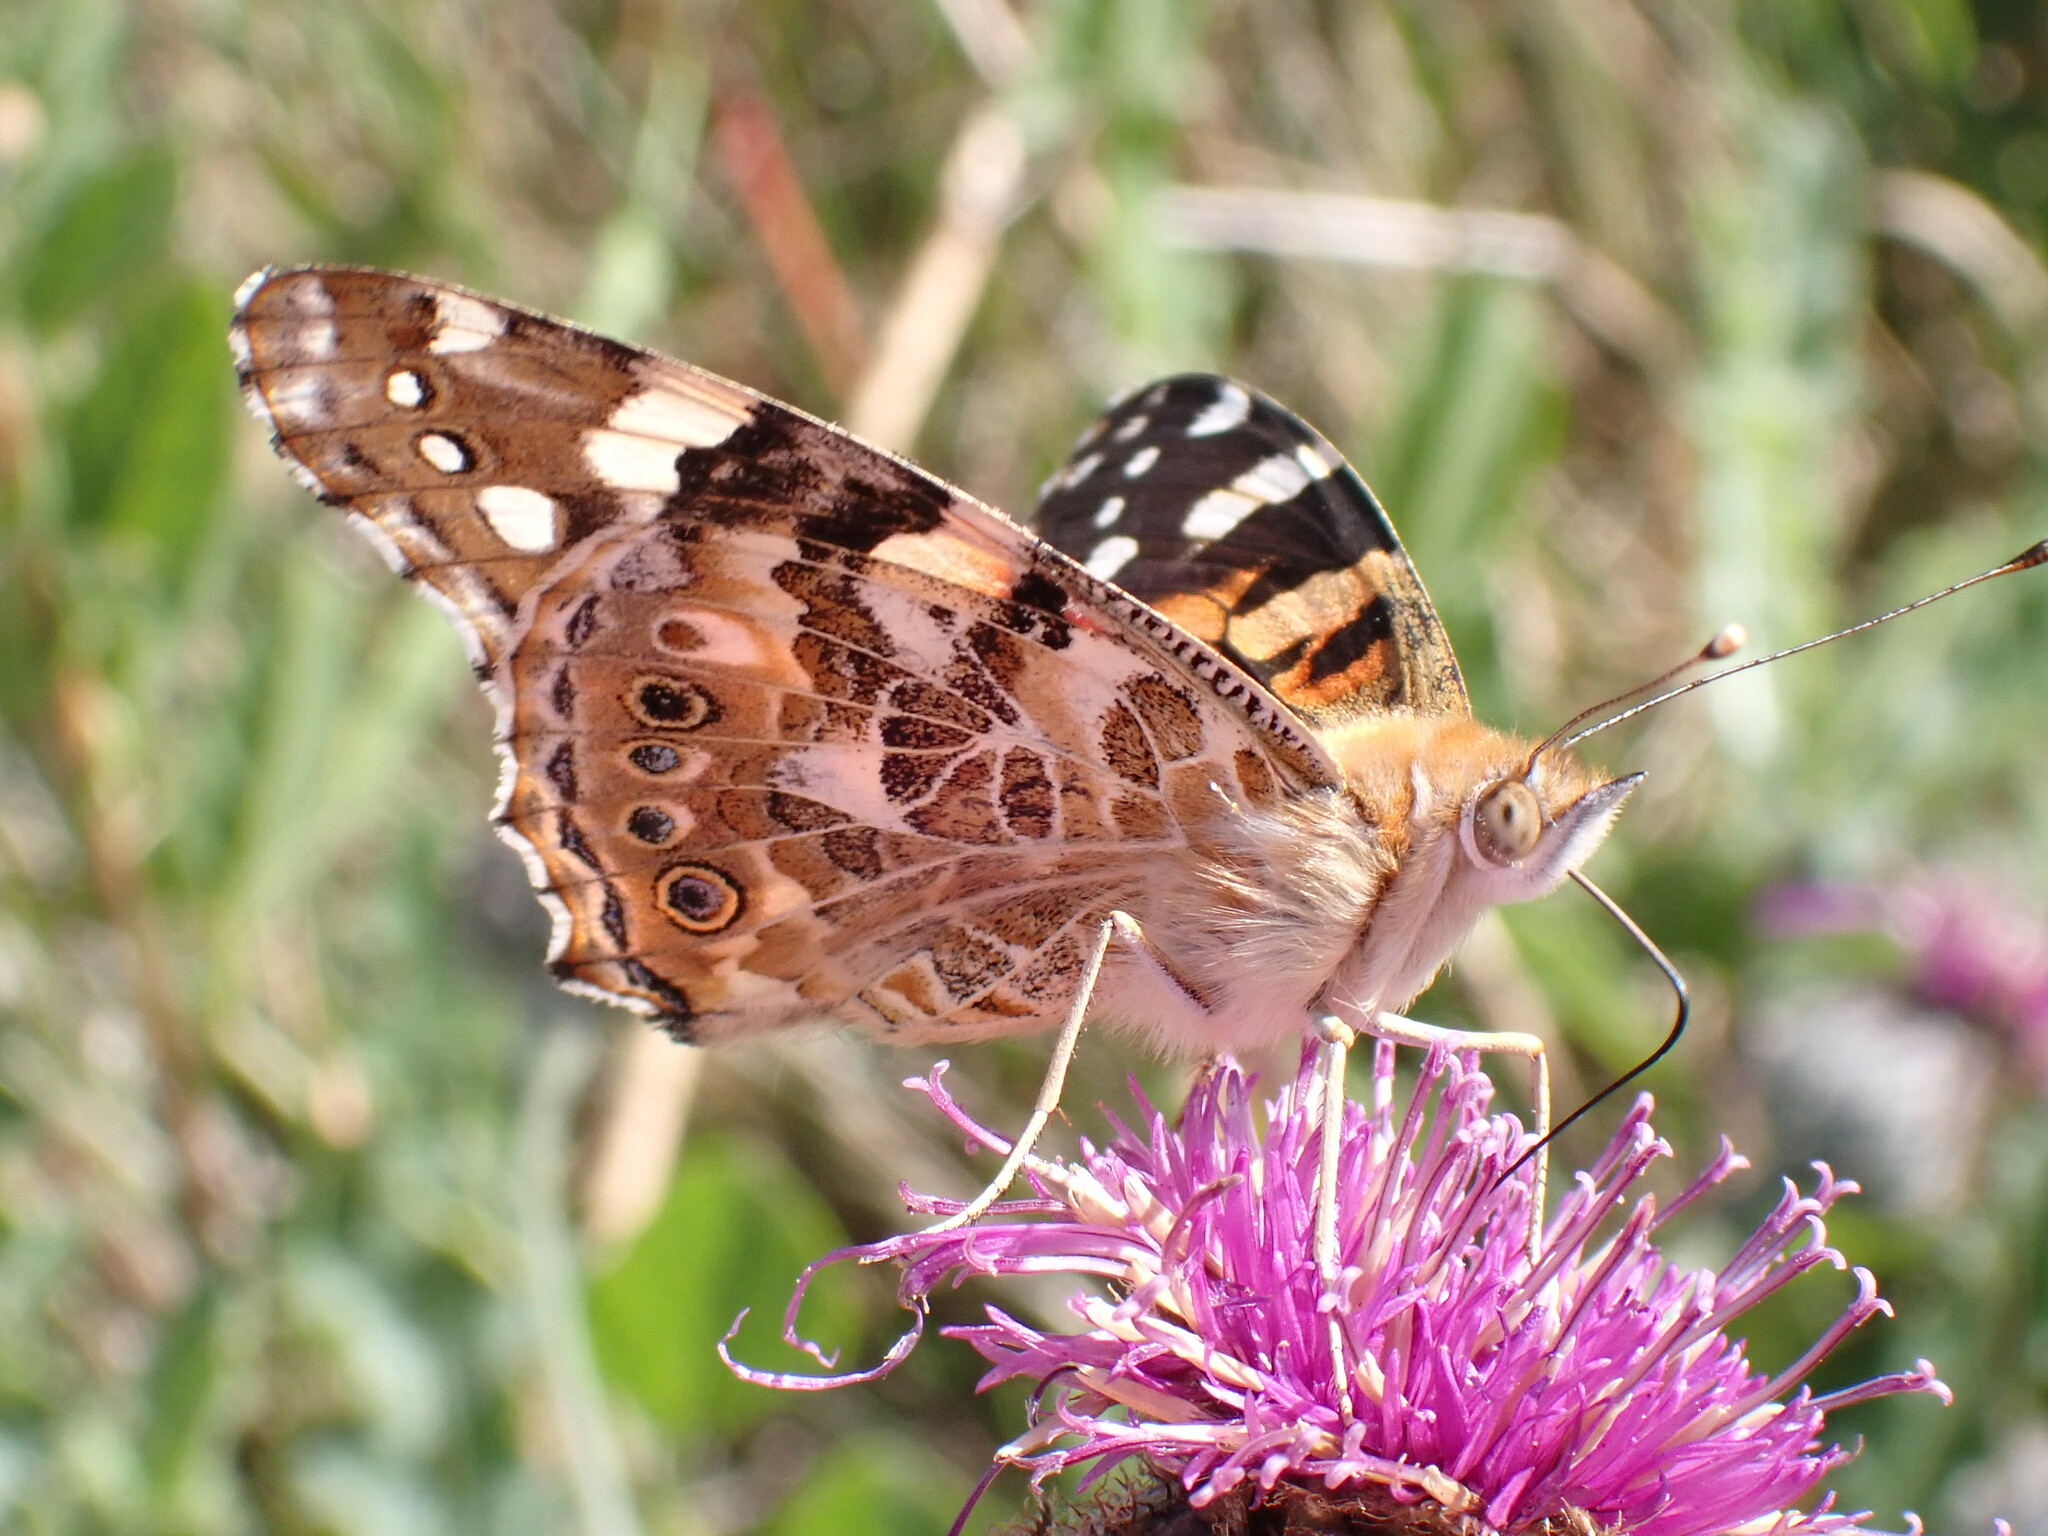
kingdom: Animalia
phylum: Arthropoda
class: Insecta
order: Lepidoptera
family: Nymphalidae
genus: Vanessa
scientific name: Vanessa cardui
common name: Painted lady
